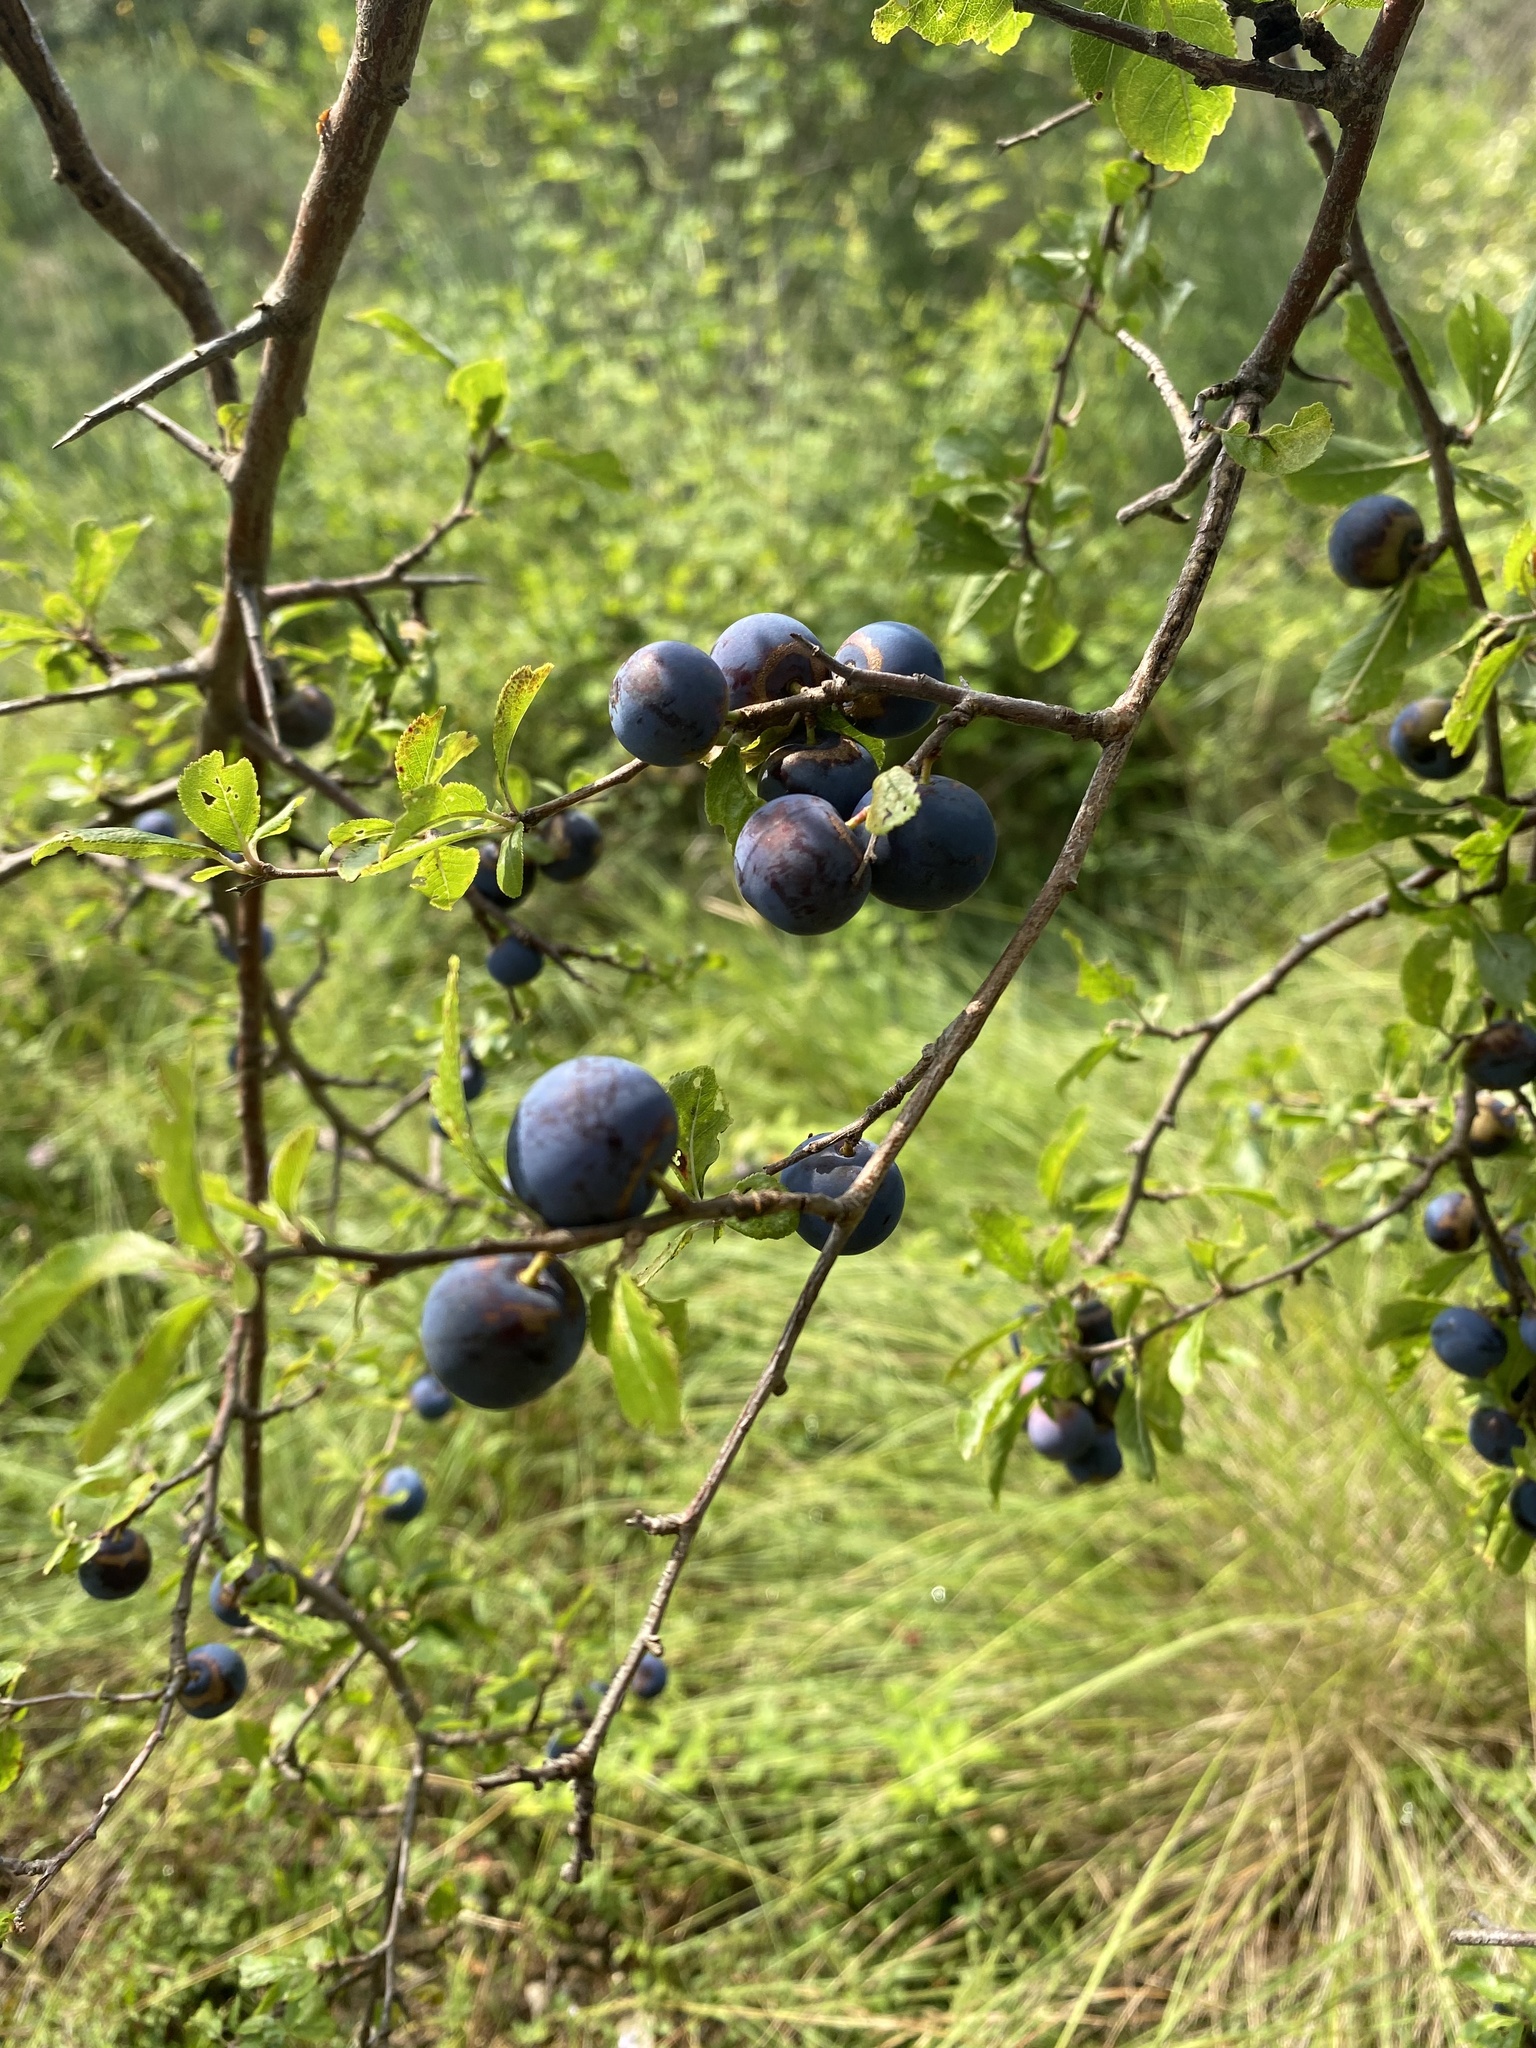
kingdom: Plantae
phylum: Tracheophyta
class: Magnoliopsida
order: Rosales
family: Rosaceae
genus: Prunus
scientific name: Prunus spinosa
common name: Blackthorn
